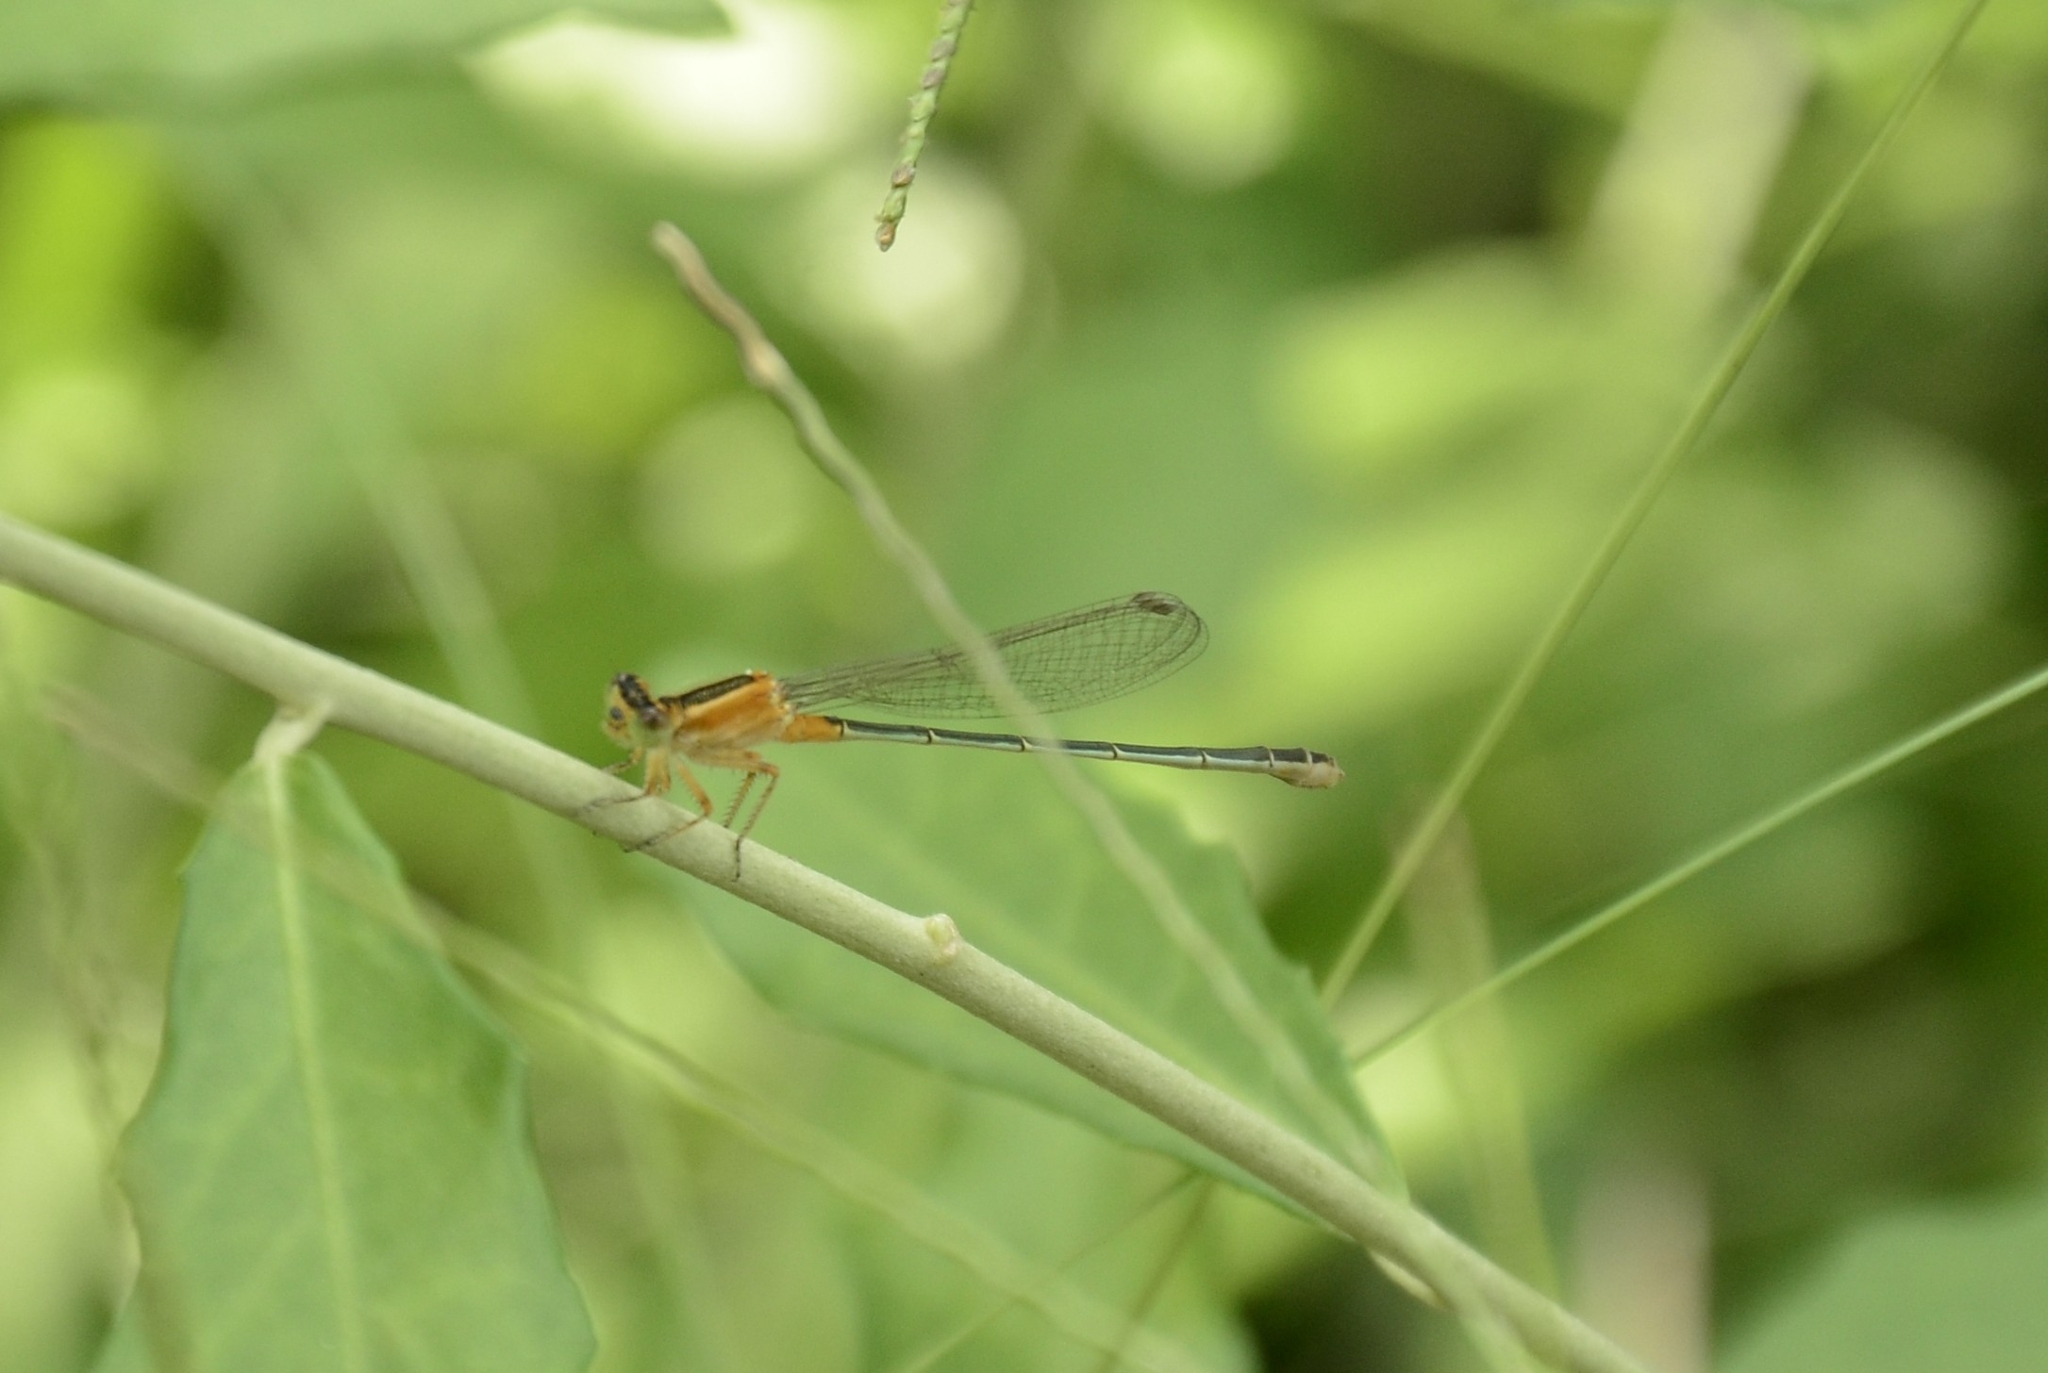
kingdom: Animalia
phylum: Arthropoda
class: Insecta
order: Odonata
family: Coenagrionidae
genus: Ischnura
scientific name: Ischnura senegalensis
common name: Tropical bluetail
